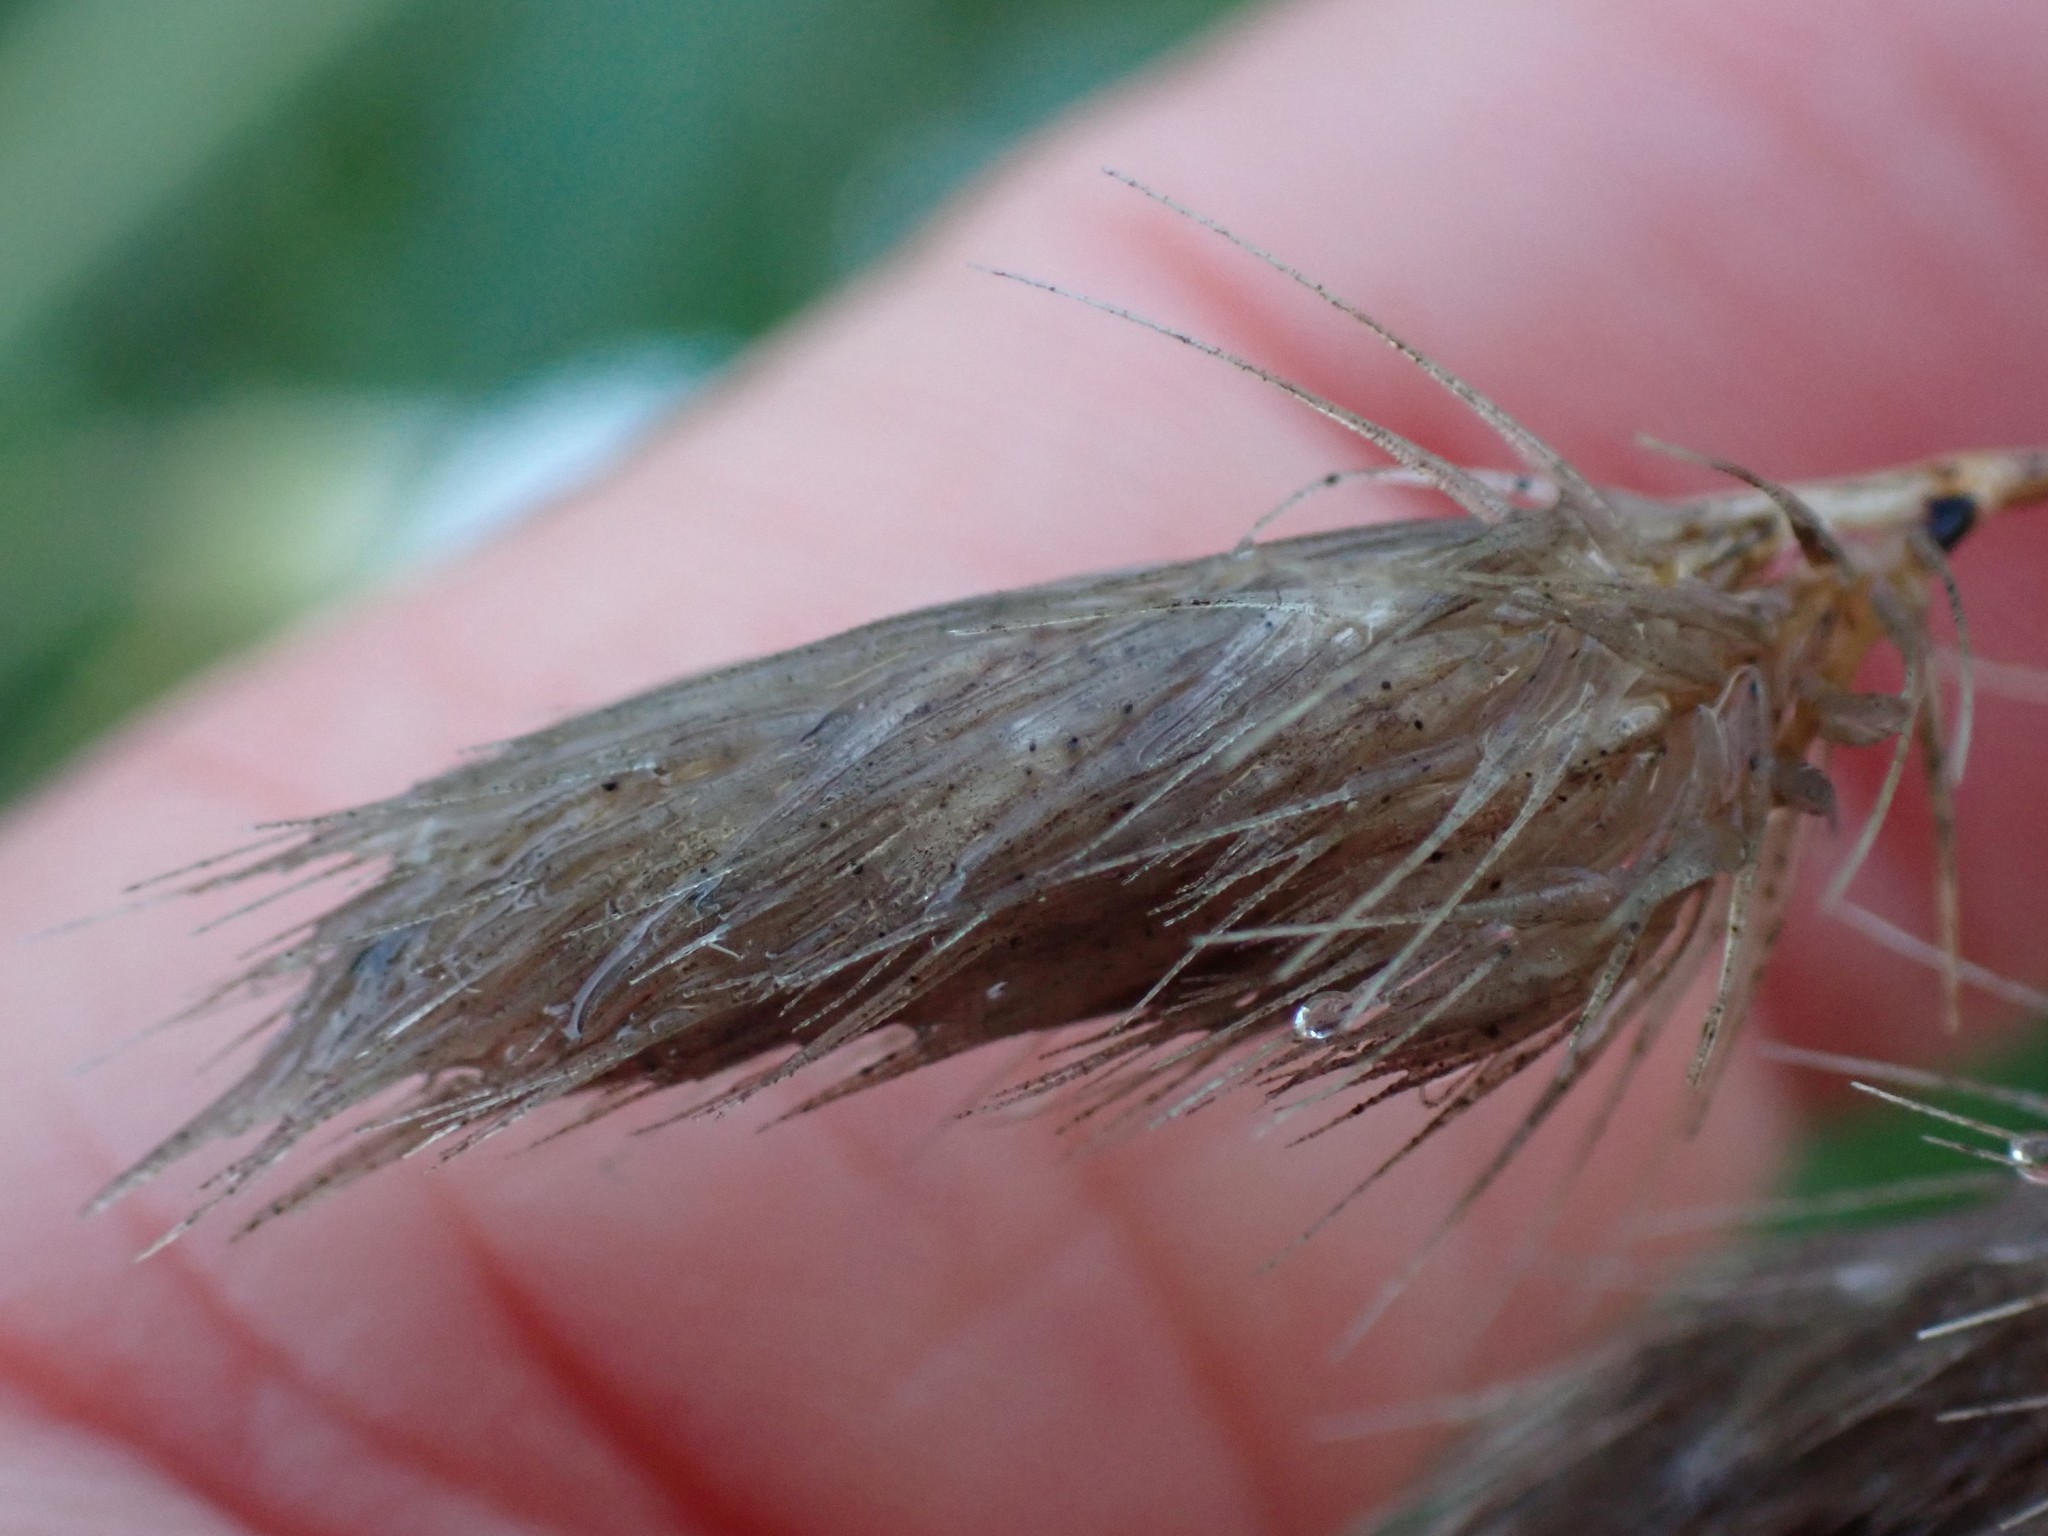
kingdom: Plantae
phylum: Tracheophyta
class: Liliopsida
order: Poales
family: Poaceae
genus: Cynosurus
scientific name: Cynosurus echinatus
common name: Rough dog's-tail
